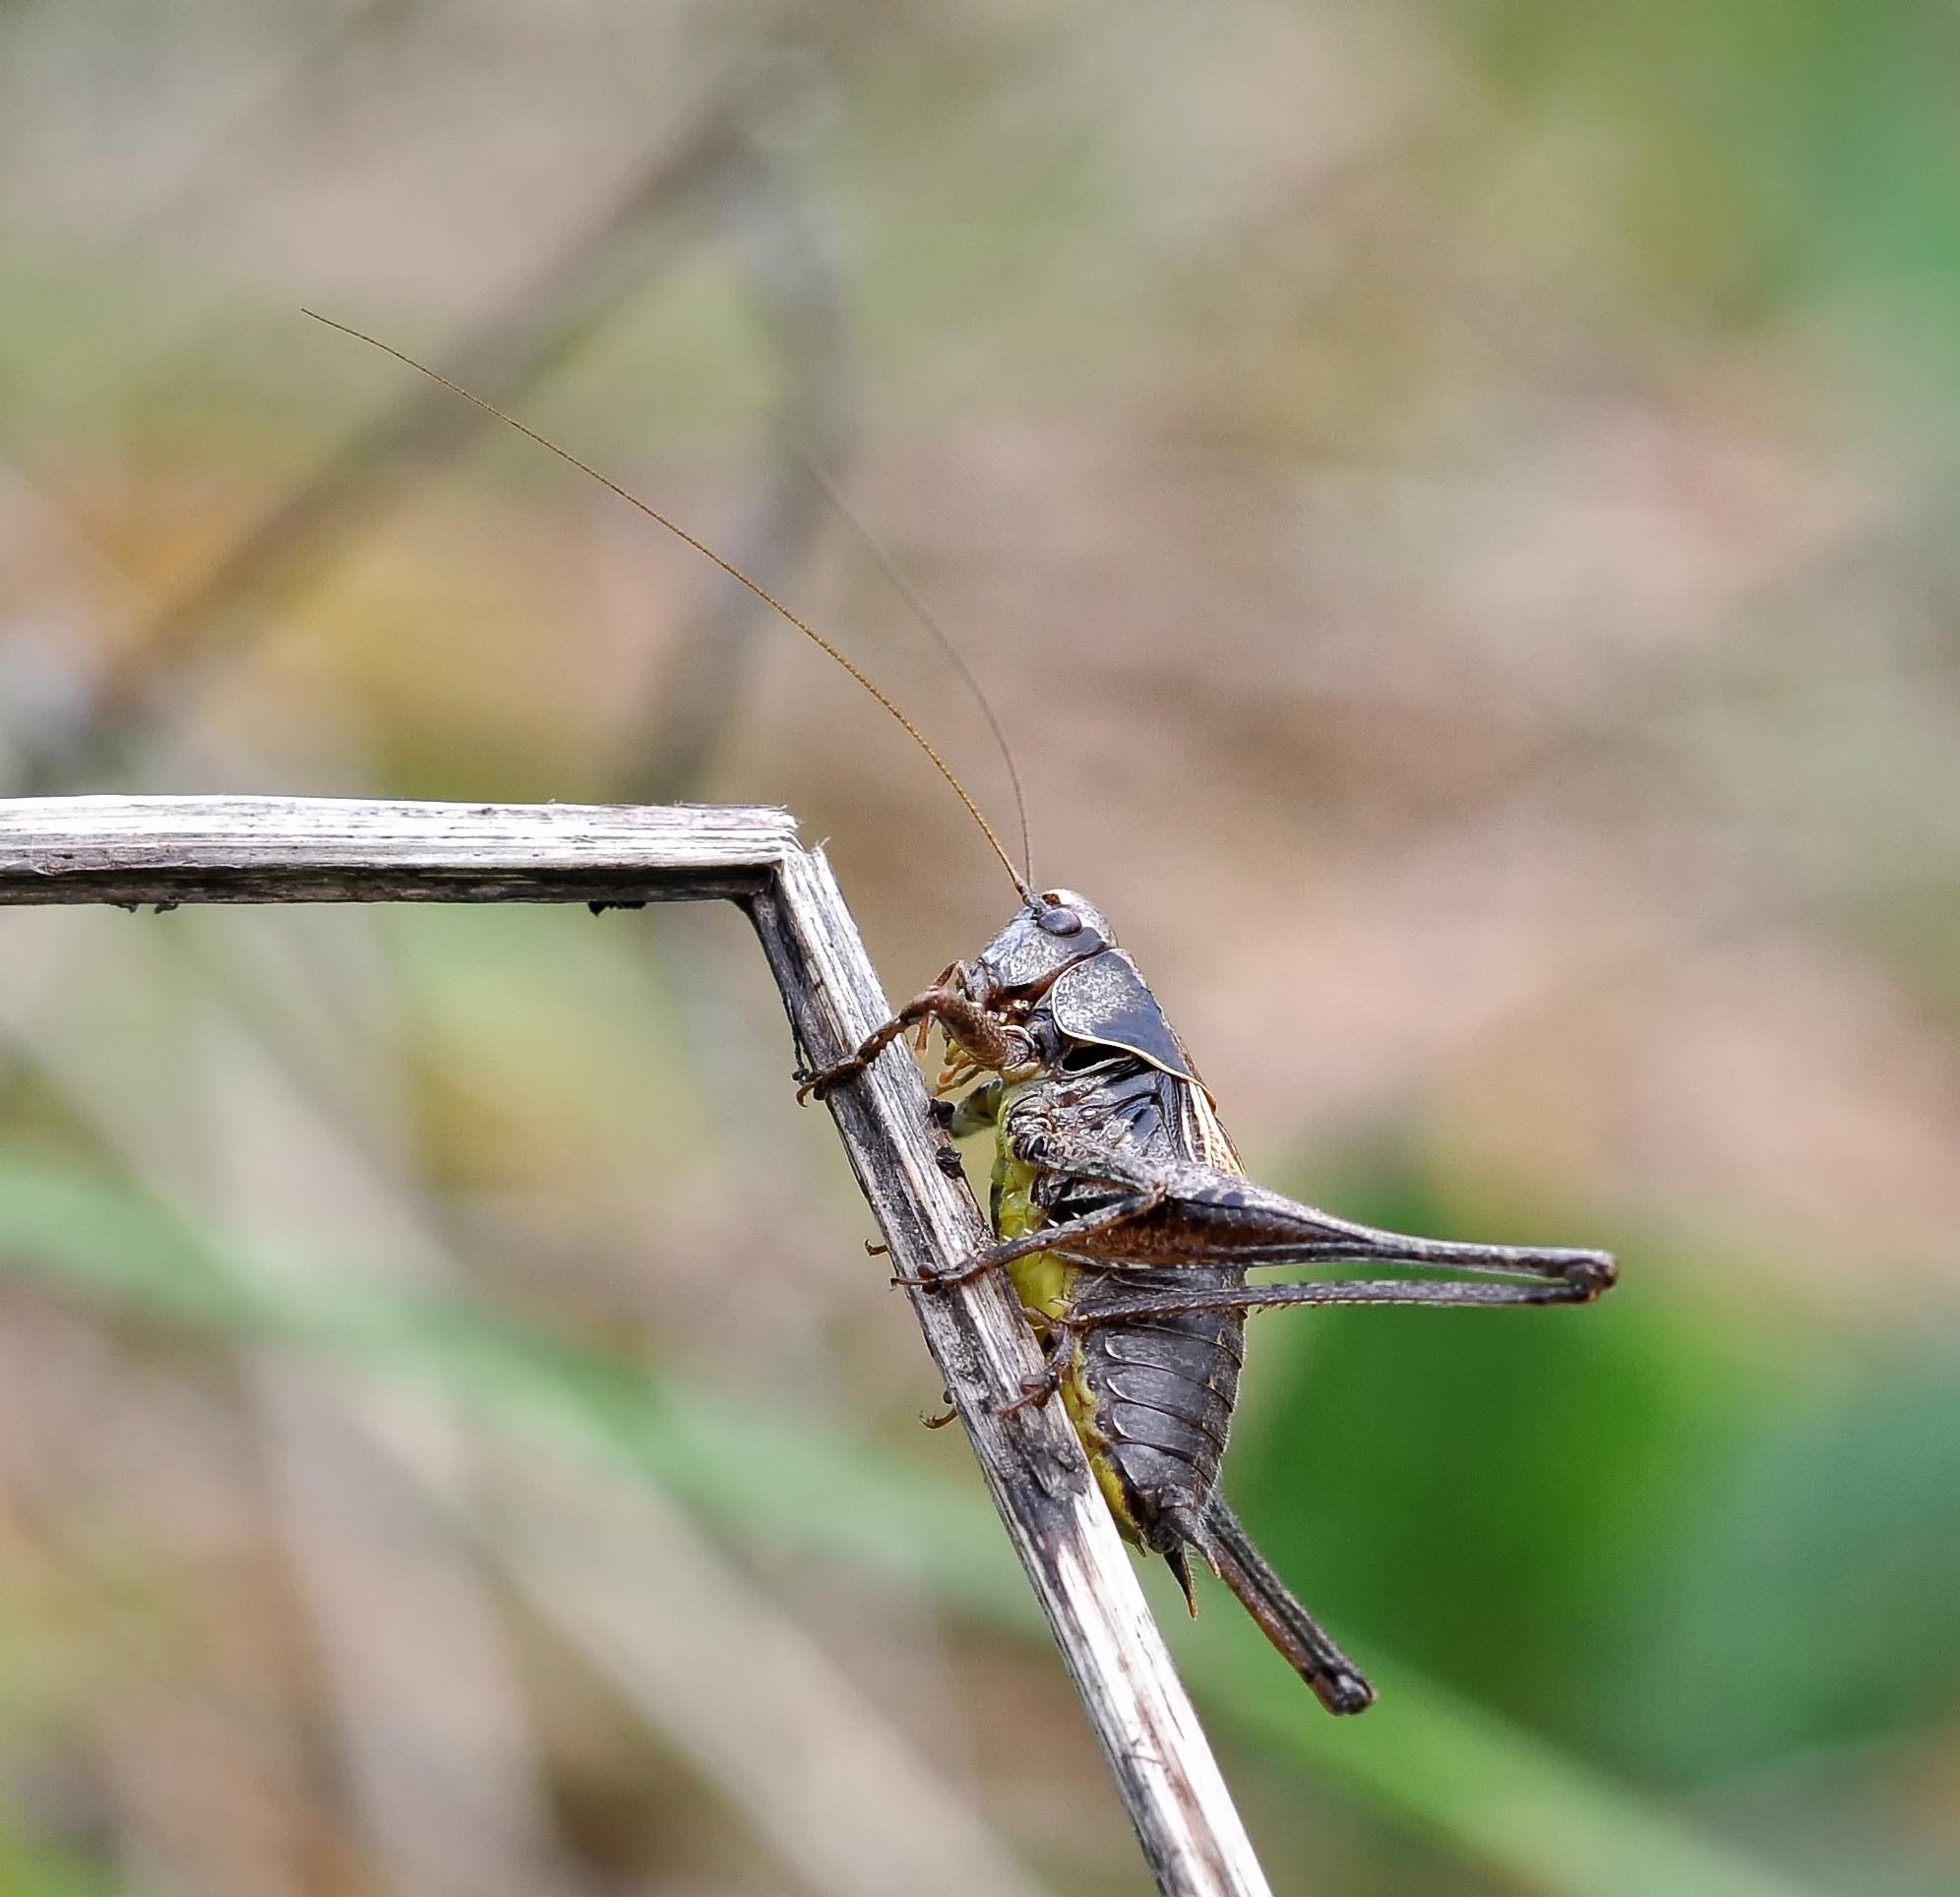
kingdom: Animalia
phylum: Arthropoda
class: Insecta
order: Orthoptera
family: Tettigoniidae
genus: Pholidoptera
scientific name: Pholidoptera griseoaptera
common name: Dark bush-cricket
